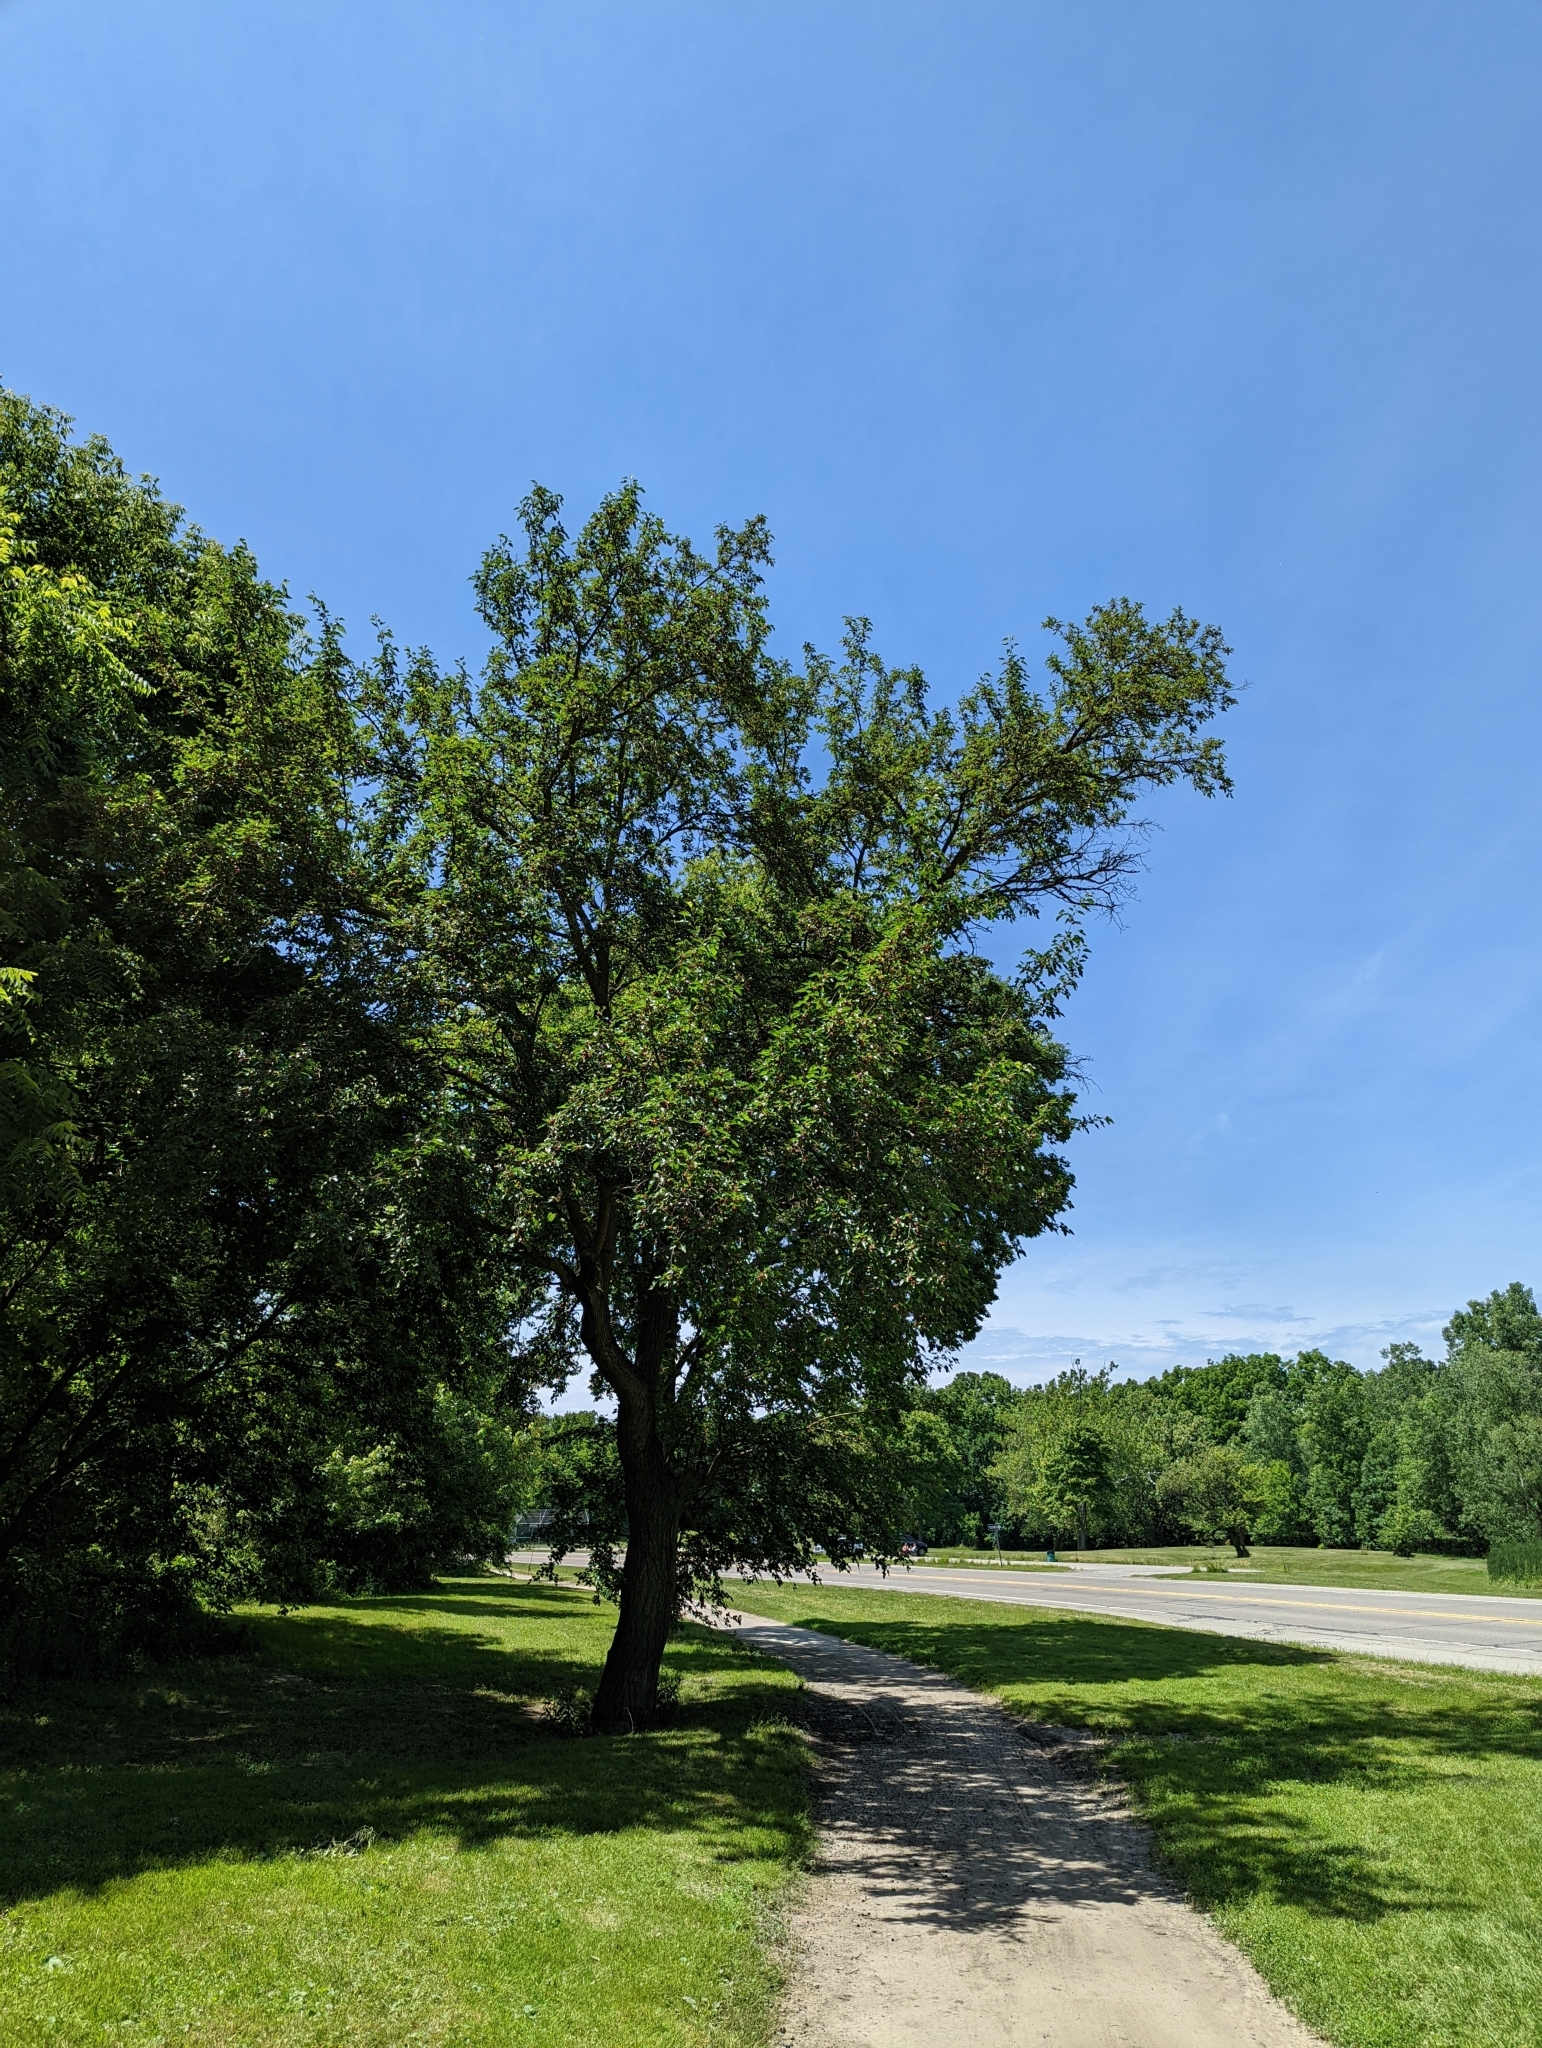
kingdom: Plantae
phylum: Tracheophyta
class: Magnoliopsida
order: Rosales
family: Moraceae
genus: Morus
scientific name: Morus alba
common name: White mulberry
